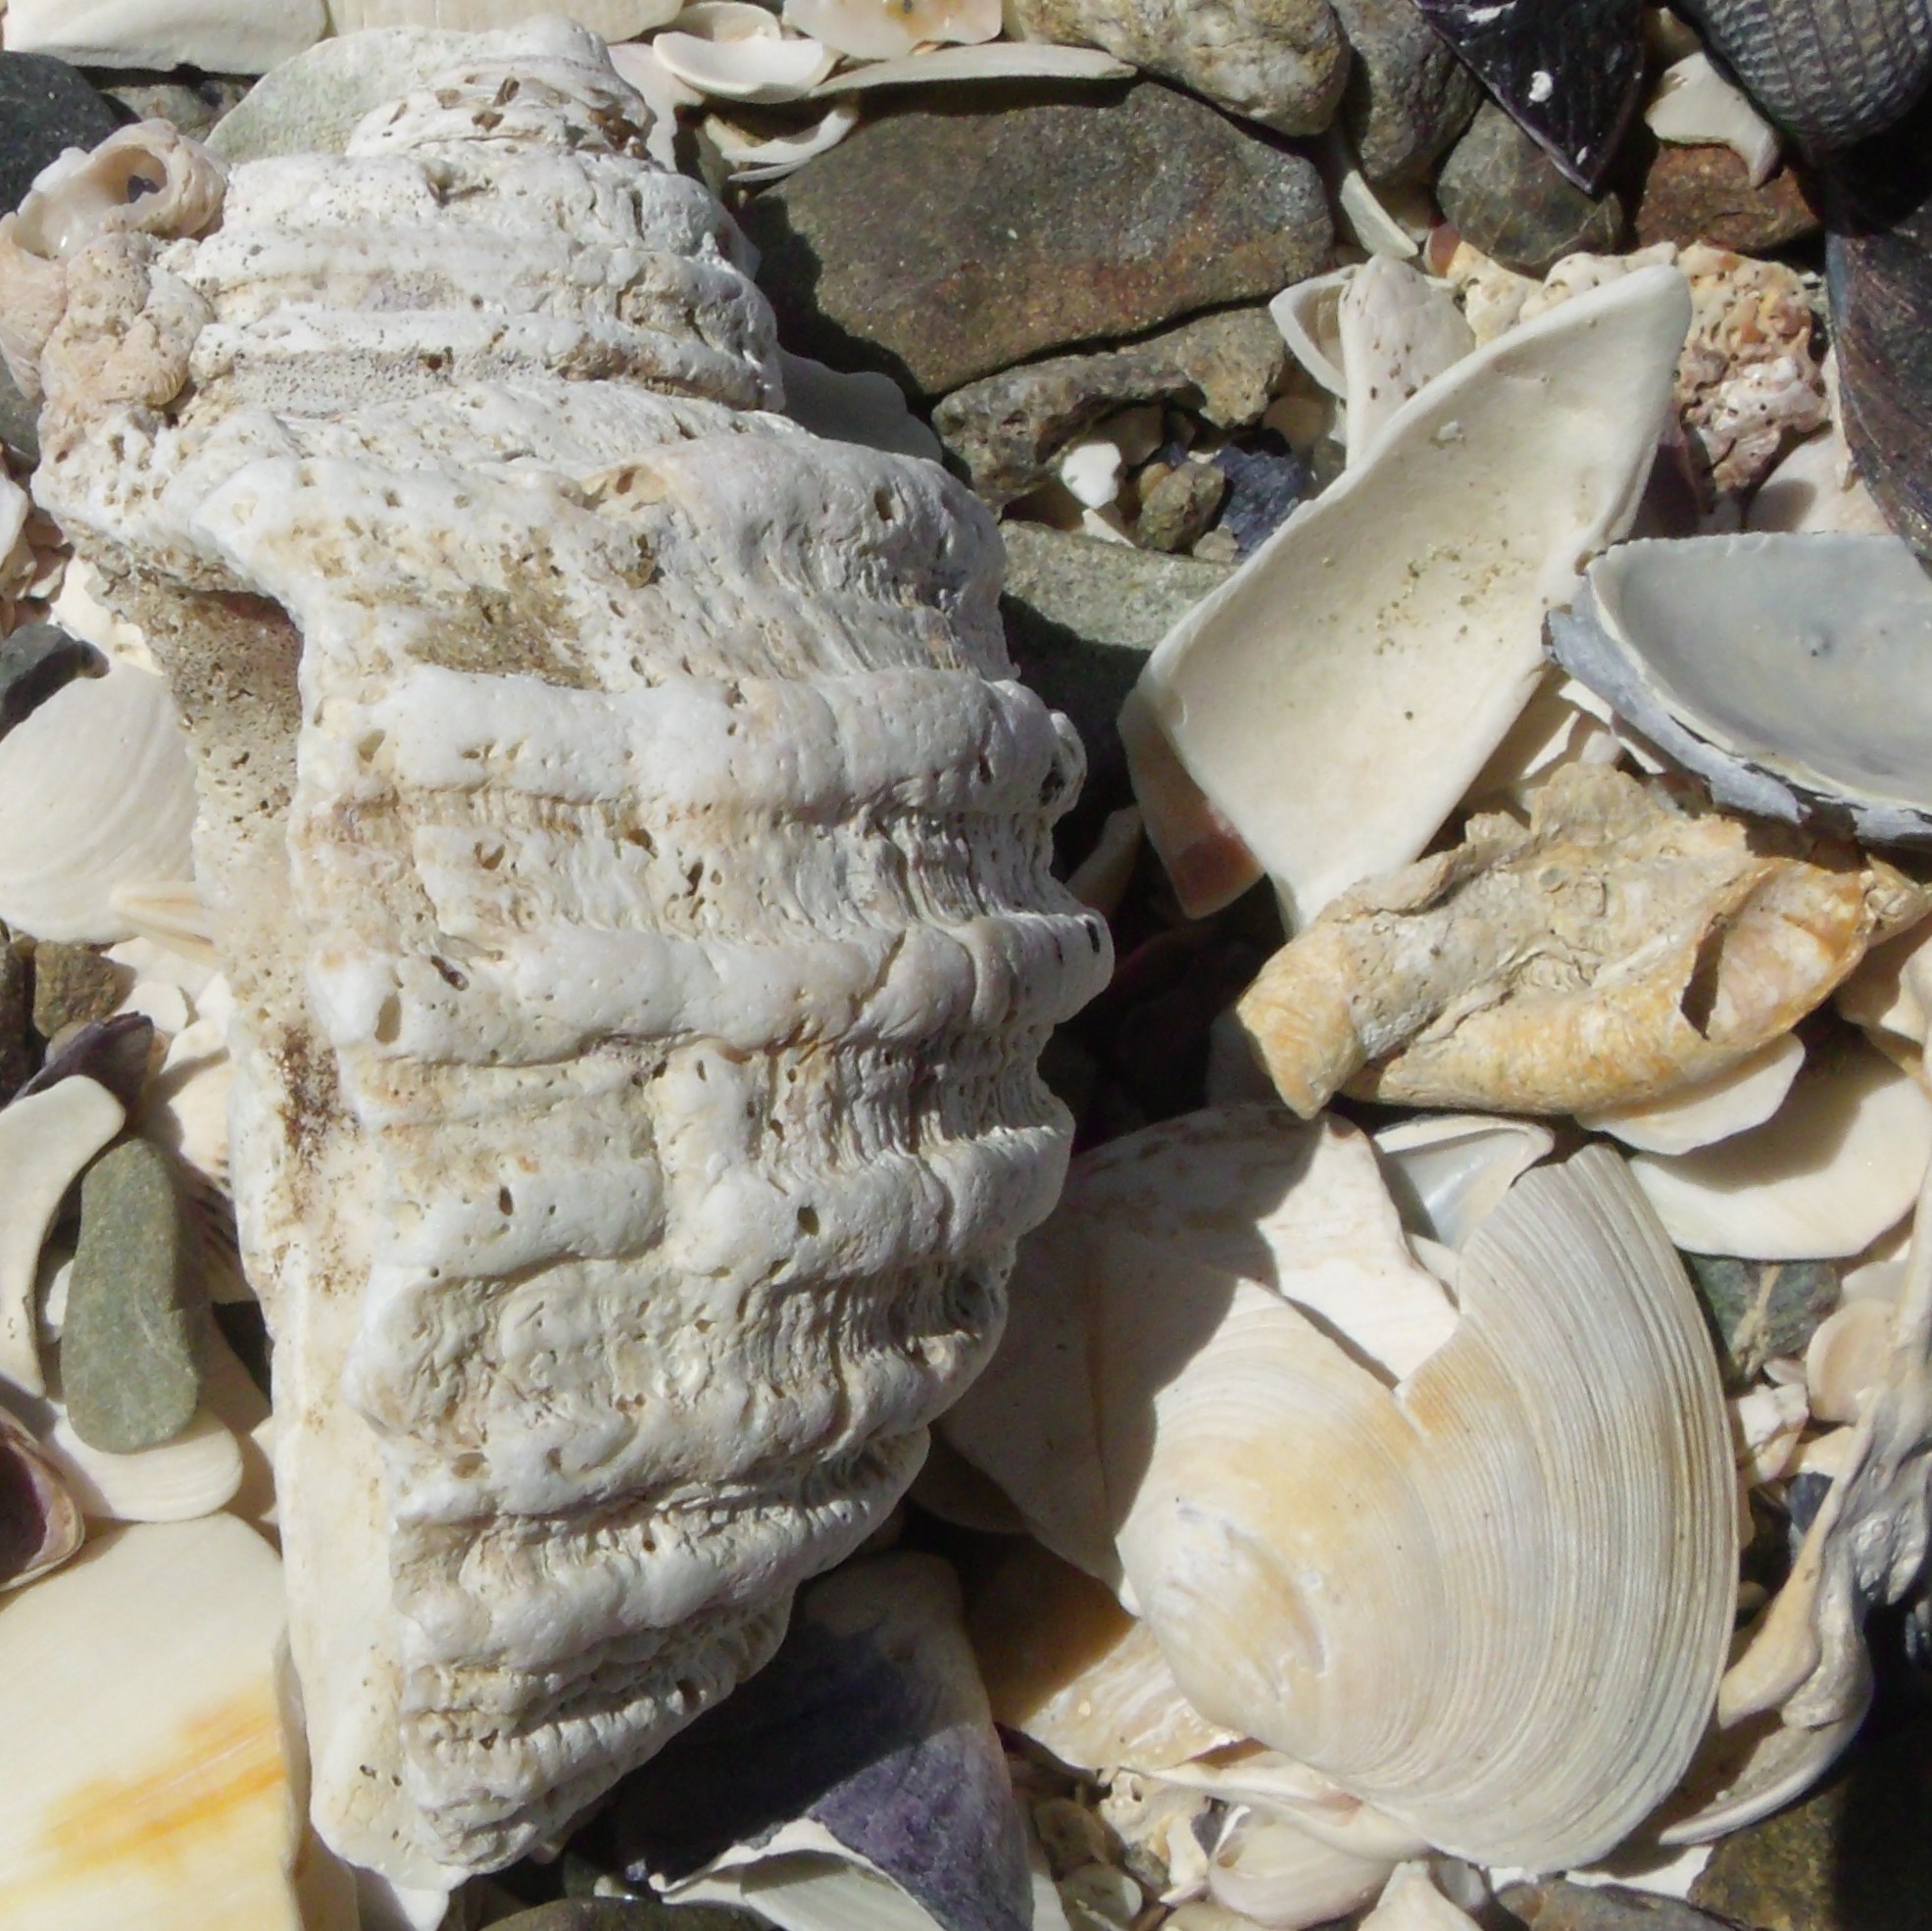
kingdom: Animalia
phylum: Mollusca
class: Gastropoda
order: Neogastropoda
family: Muricidae
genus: Dicathais
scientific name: Dicathais orbita
